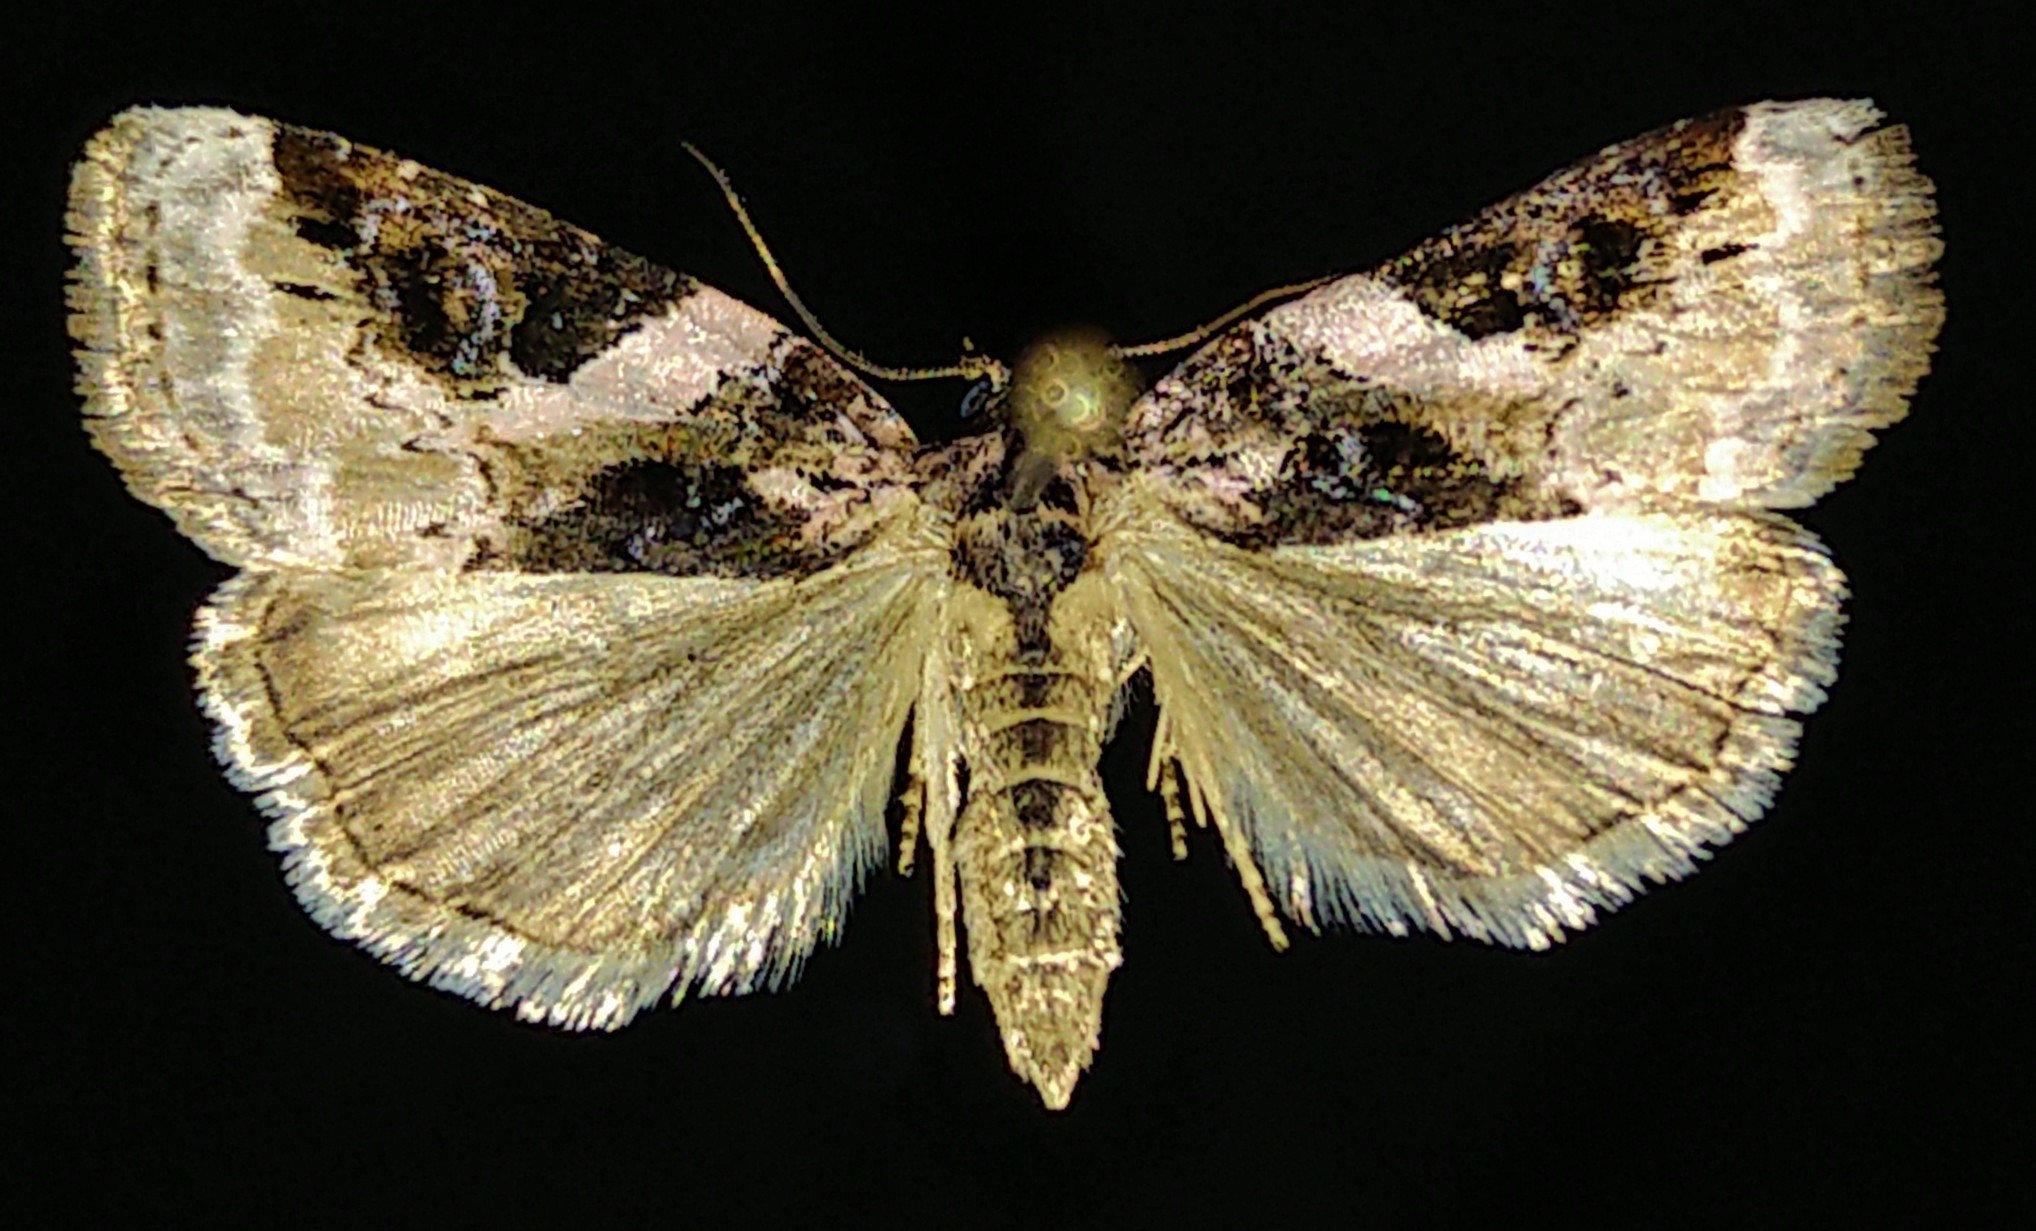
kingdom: Animalia
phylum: Arthropoda
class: Insecta
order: Lepidoptera
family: Noctuidae
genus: Pseudeustrotia
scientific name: Pseudeustrotia carneola
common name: Pink-barred lithacodia moth
